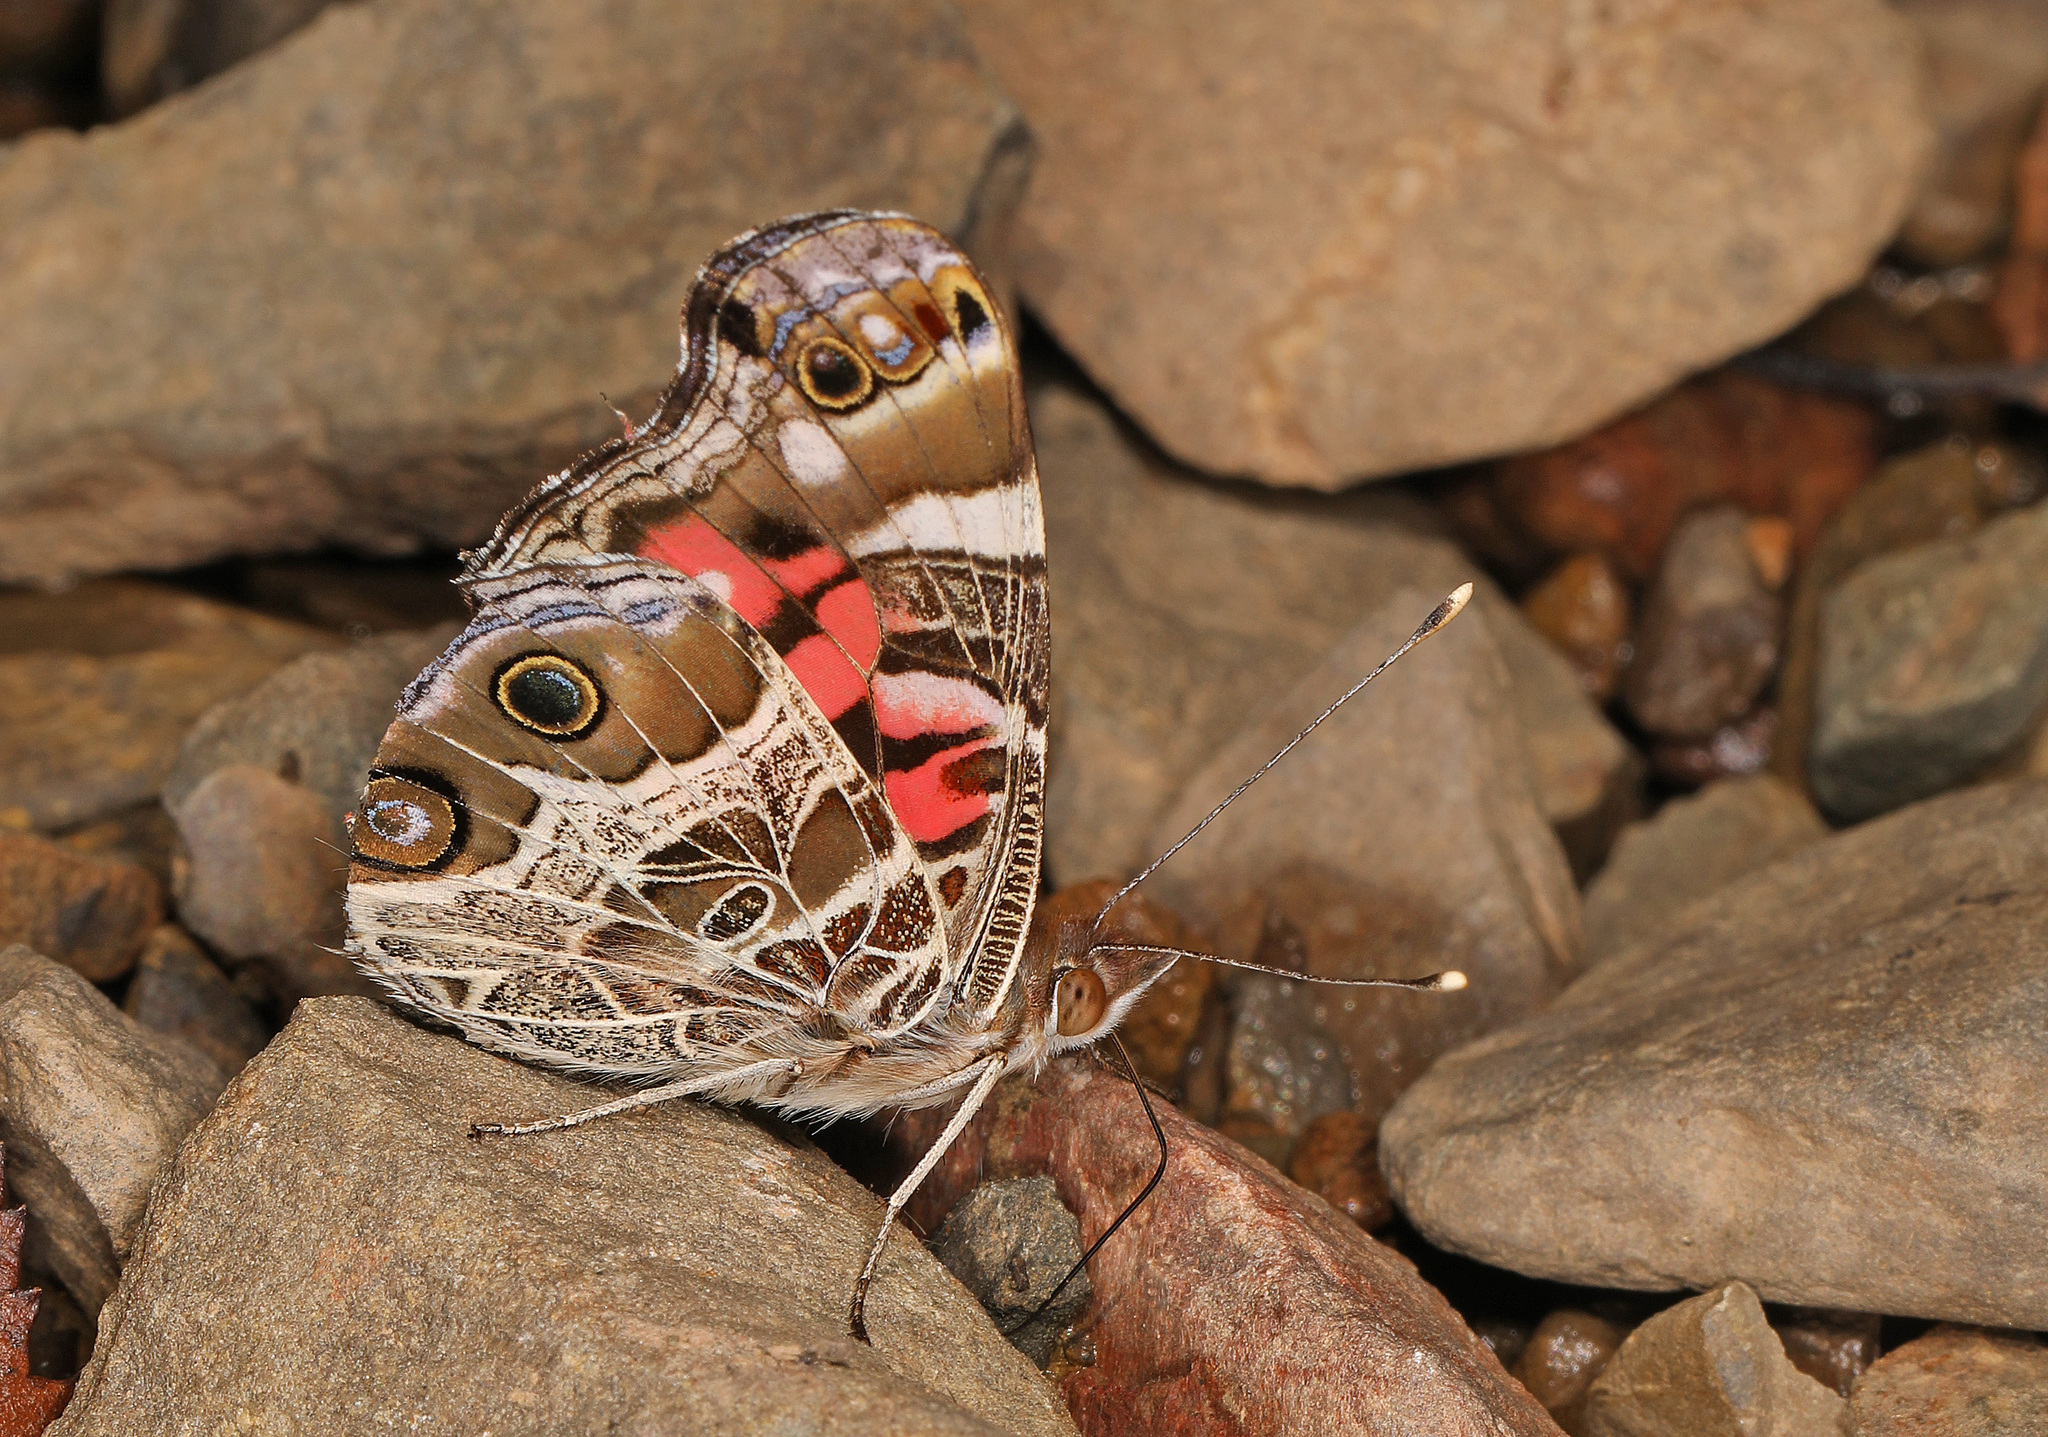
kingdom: Animalia
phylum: Arthropoda
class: Insecta
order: Lepidoptera
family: Nymphalidae
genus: Vanessa
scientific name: Vanessa virginiensis
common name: American lady
